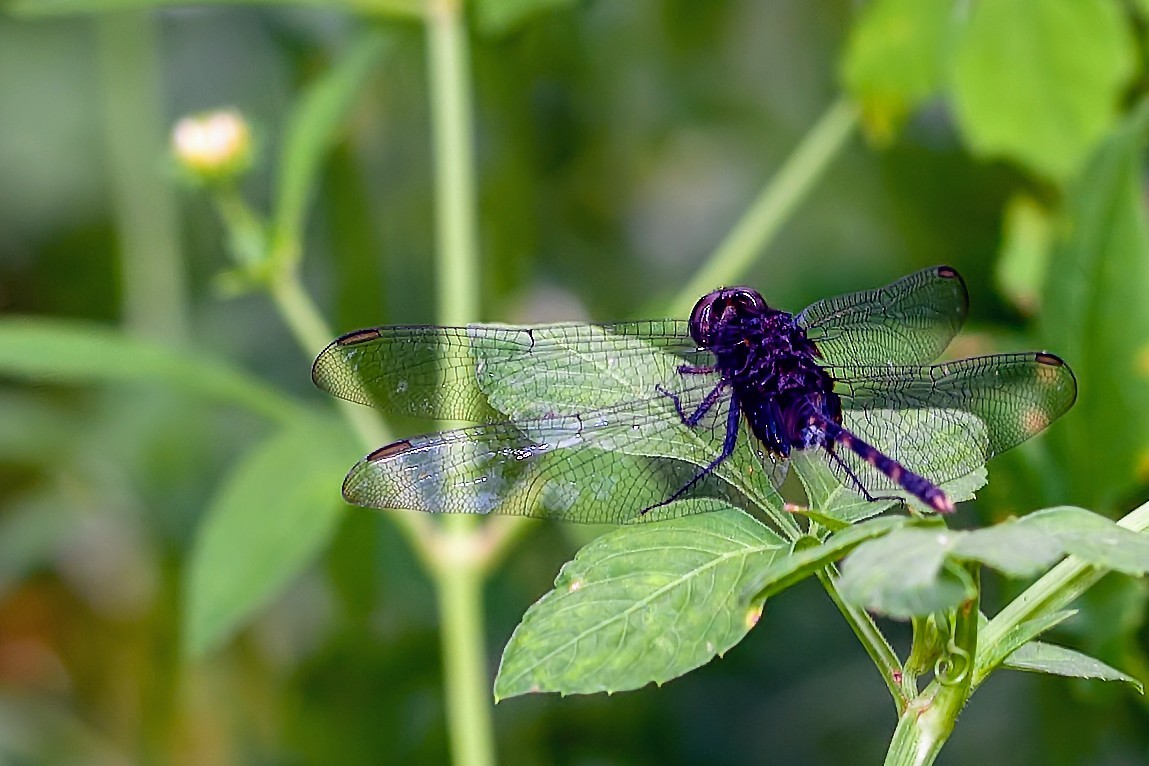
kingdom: Animalia
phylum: Arthropoda
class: Insecta
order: Odonata
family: Libellulidae
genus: Erythemis
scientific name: Erythemis plebeja
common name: Pin-tailed pondhawk
